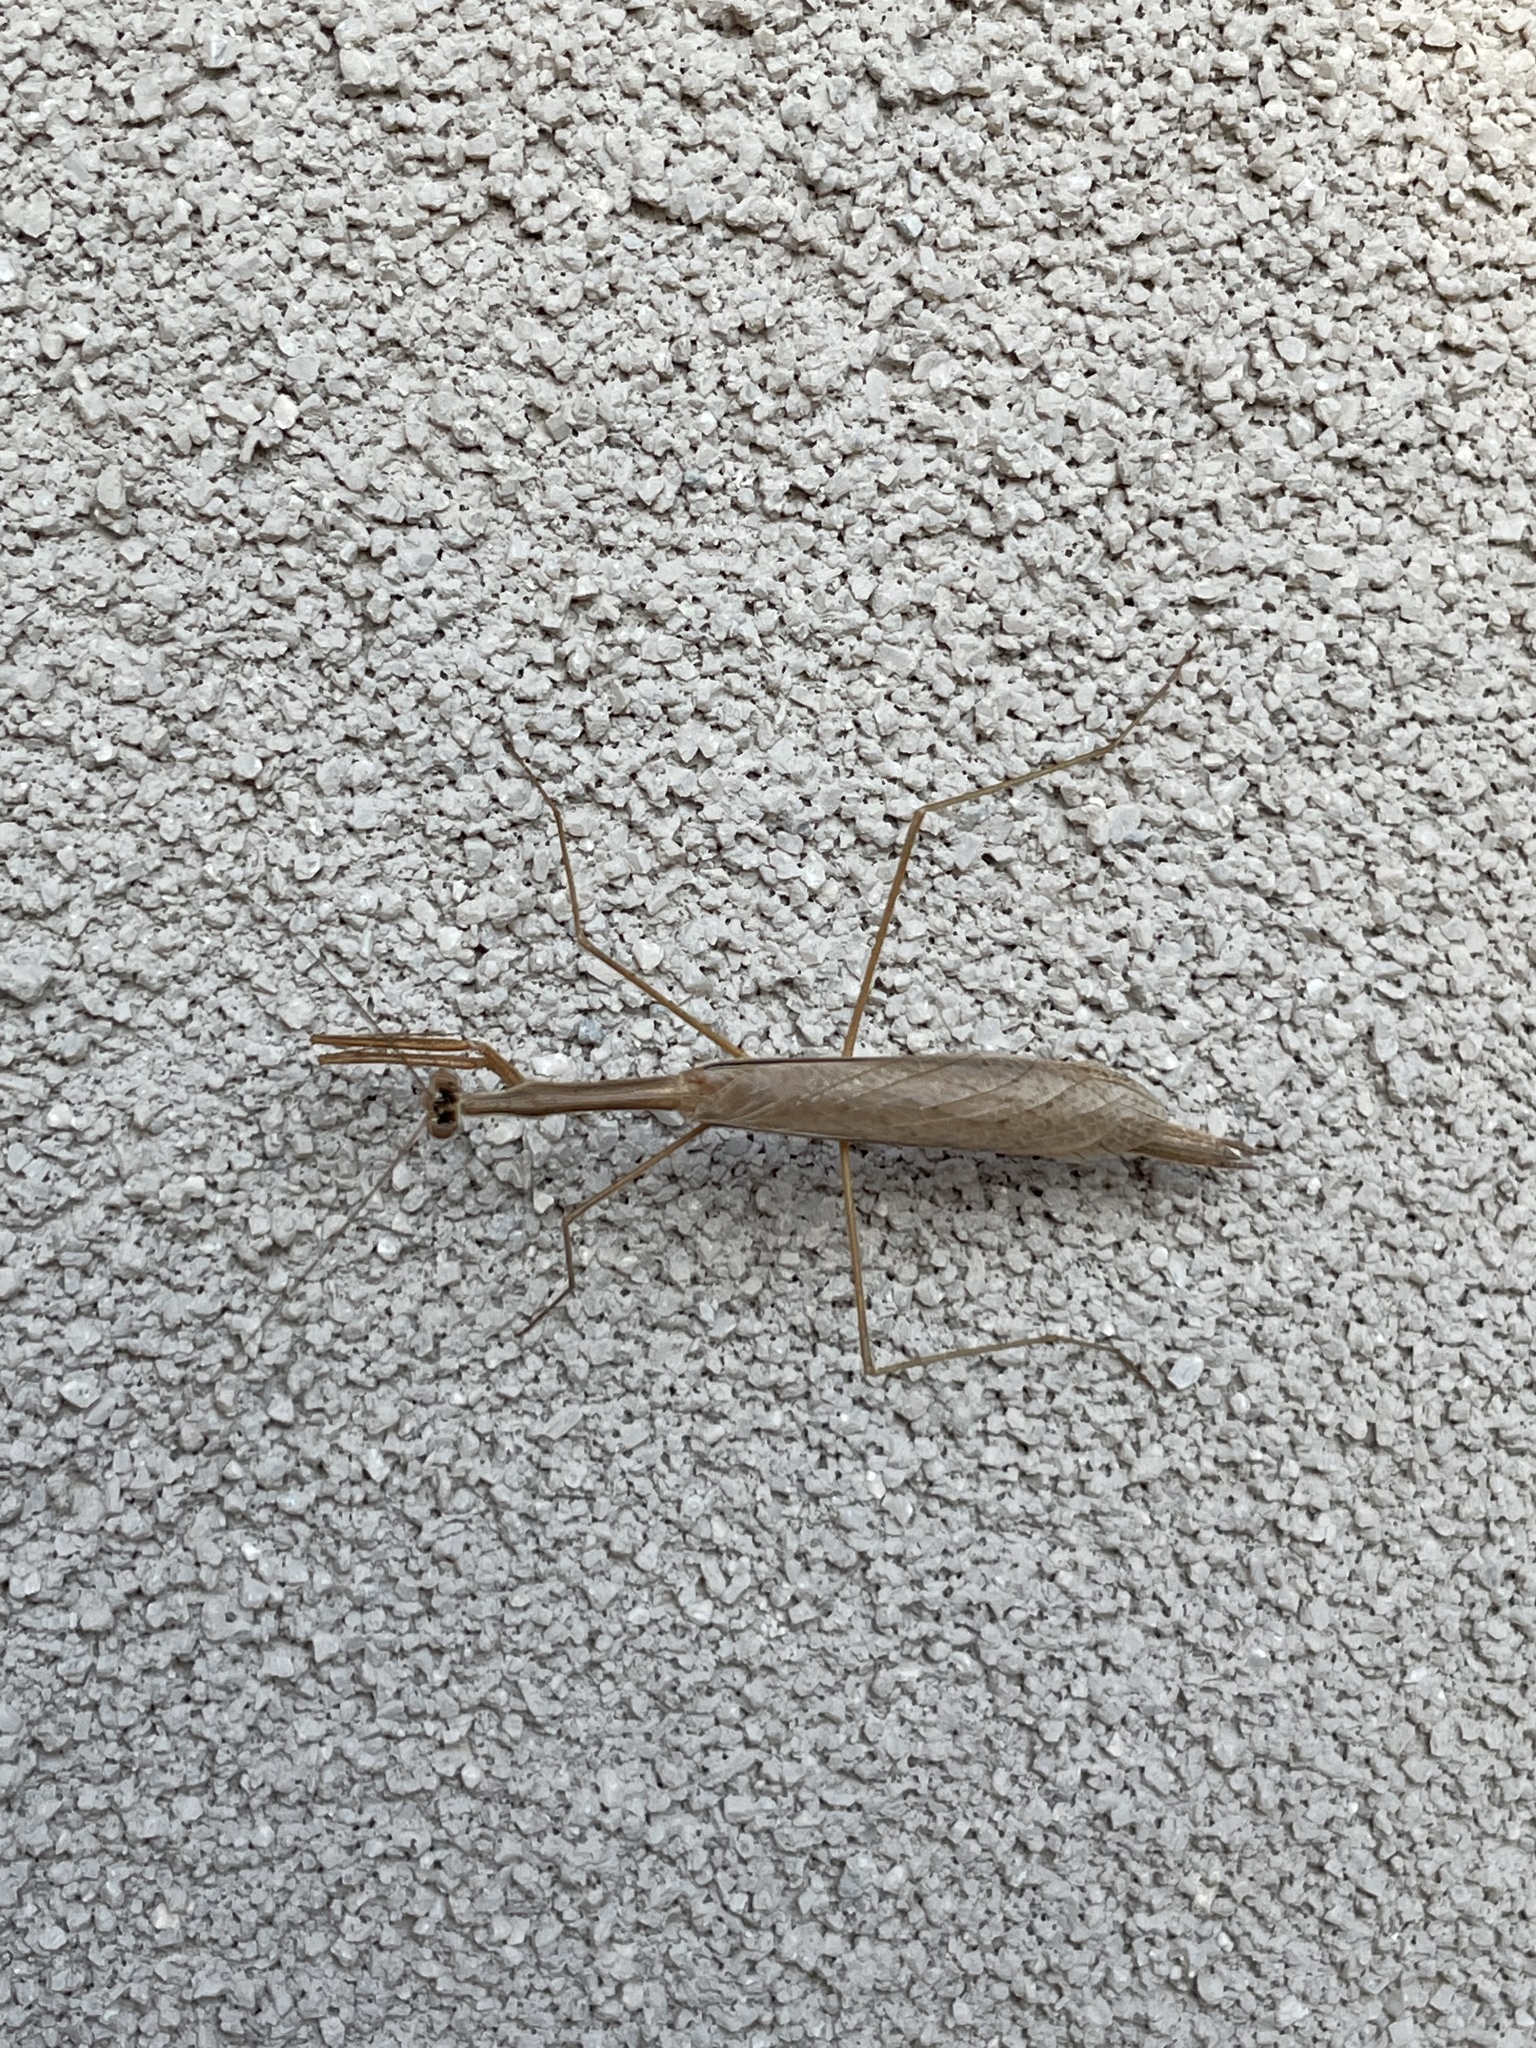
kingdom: Animalia
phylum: Arthropoda
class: Insecta
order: Mantodea
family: Thespidae
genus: Bistanta
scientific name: Bistanta mexicana
